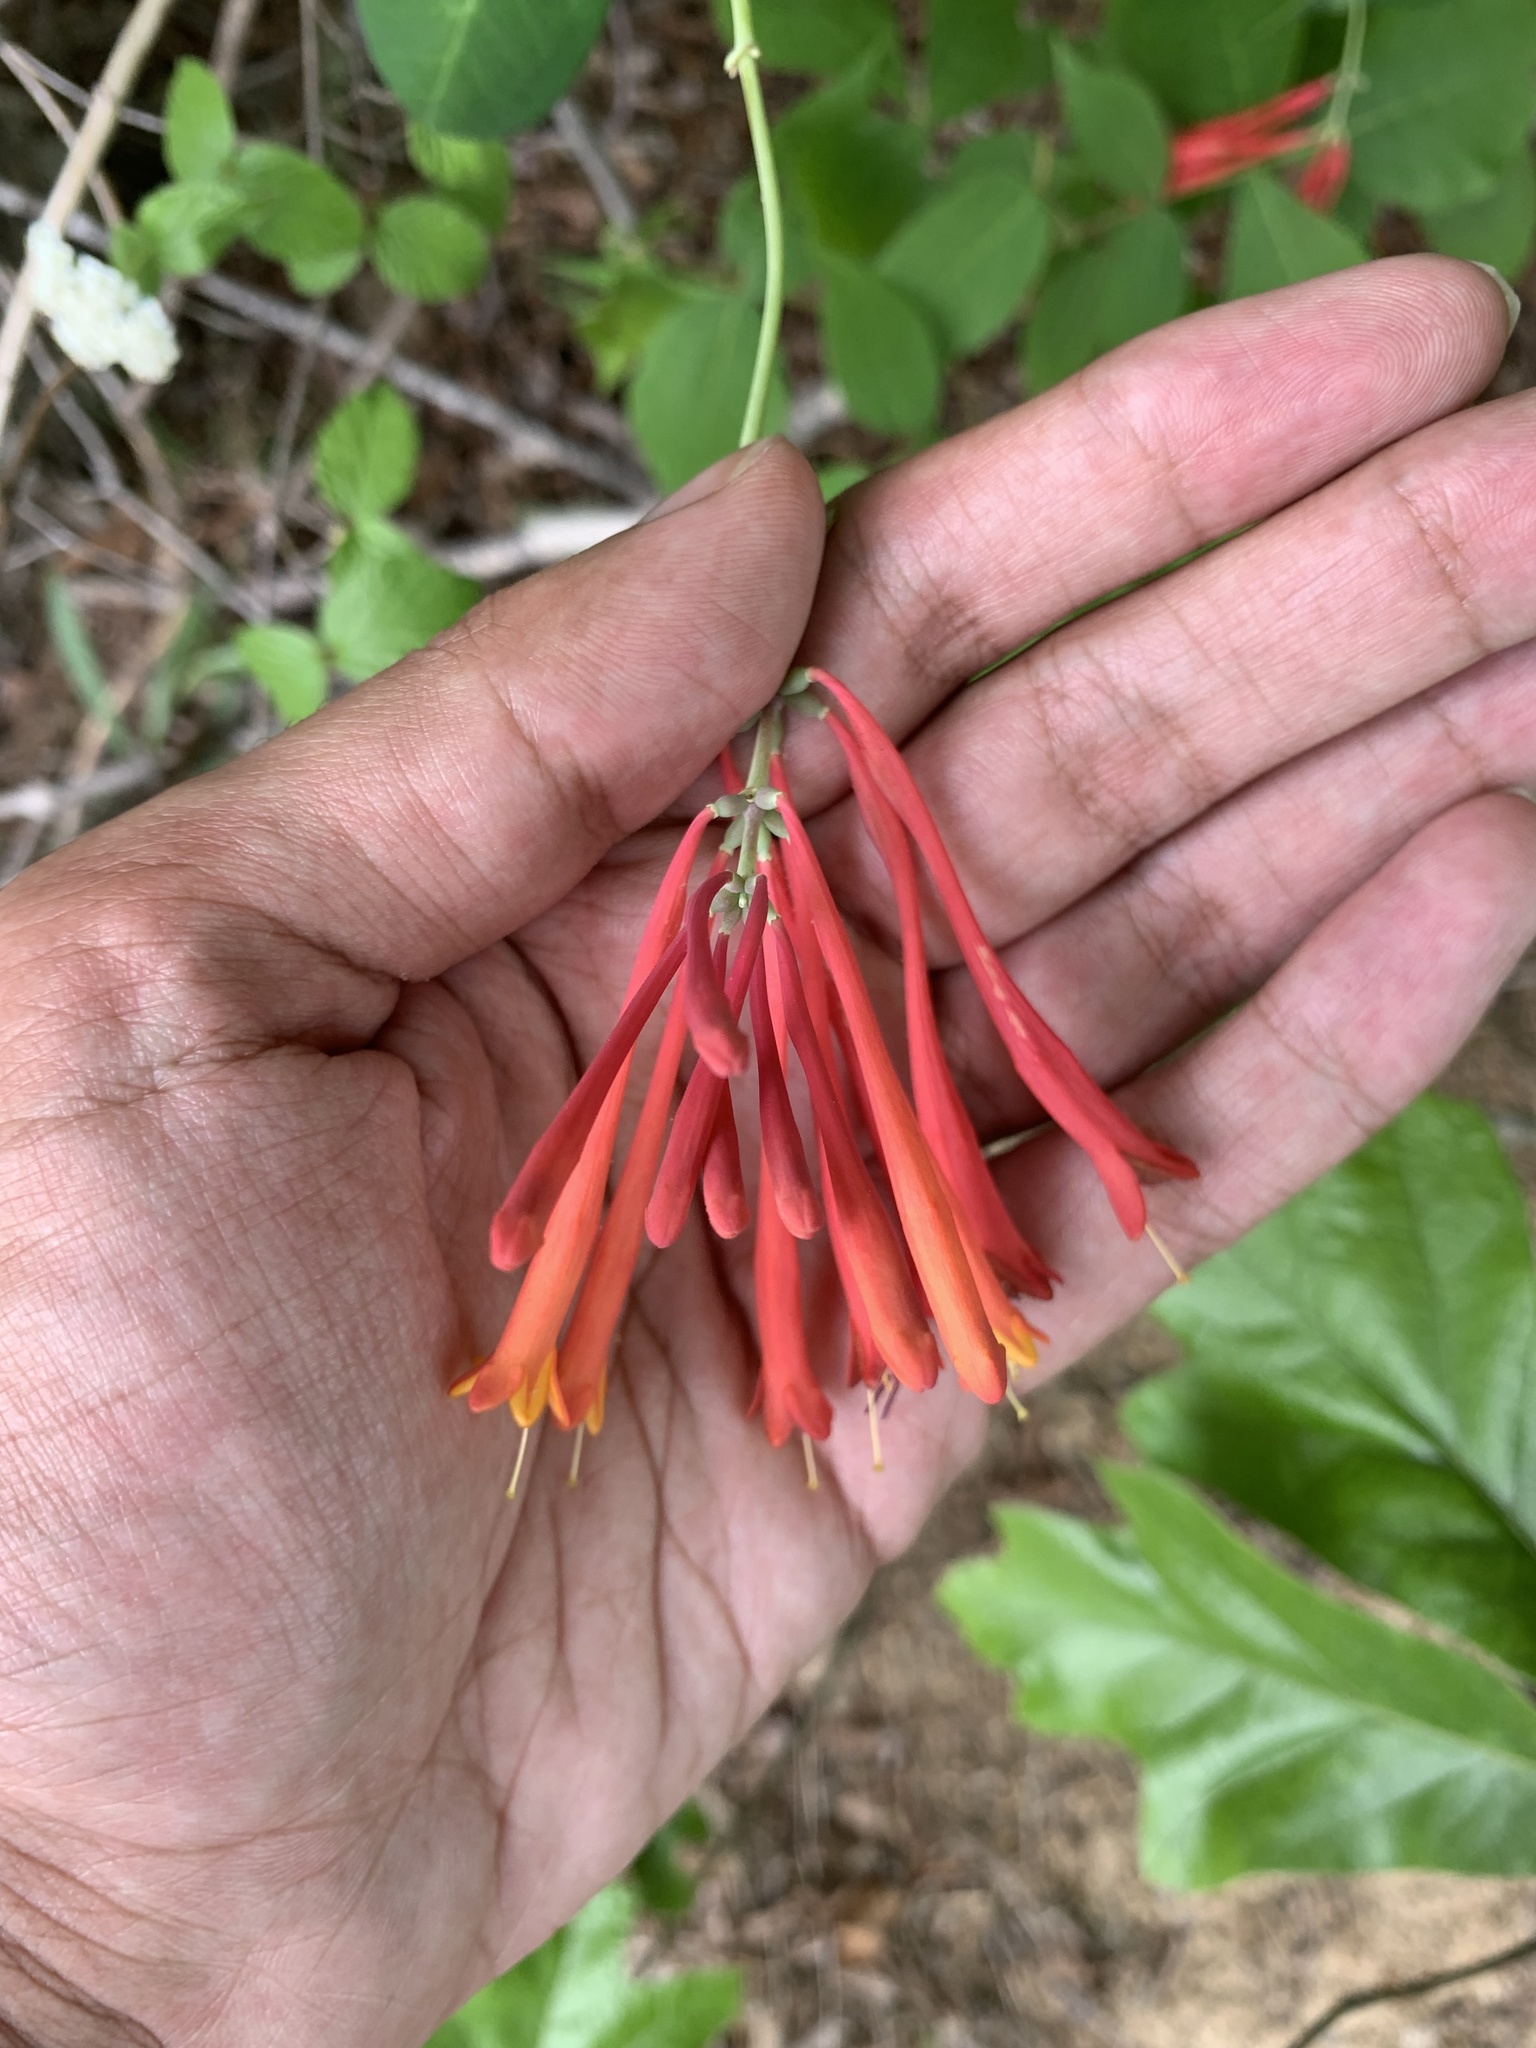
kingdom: Plantae
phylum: Tracheophyta
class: Magnoliopsida
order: Dipsacales
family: Caprifoliaceae
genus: Lonicera
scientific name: Lonicera sempervirens
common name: Coral honeysuckle
